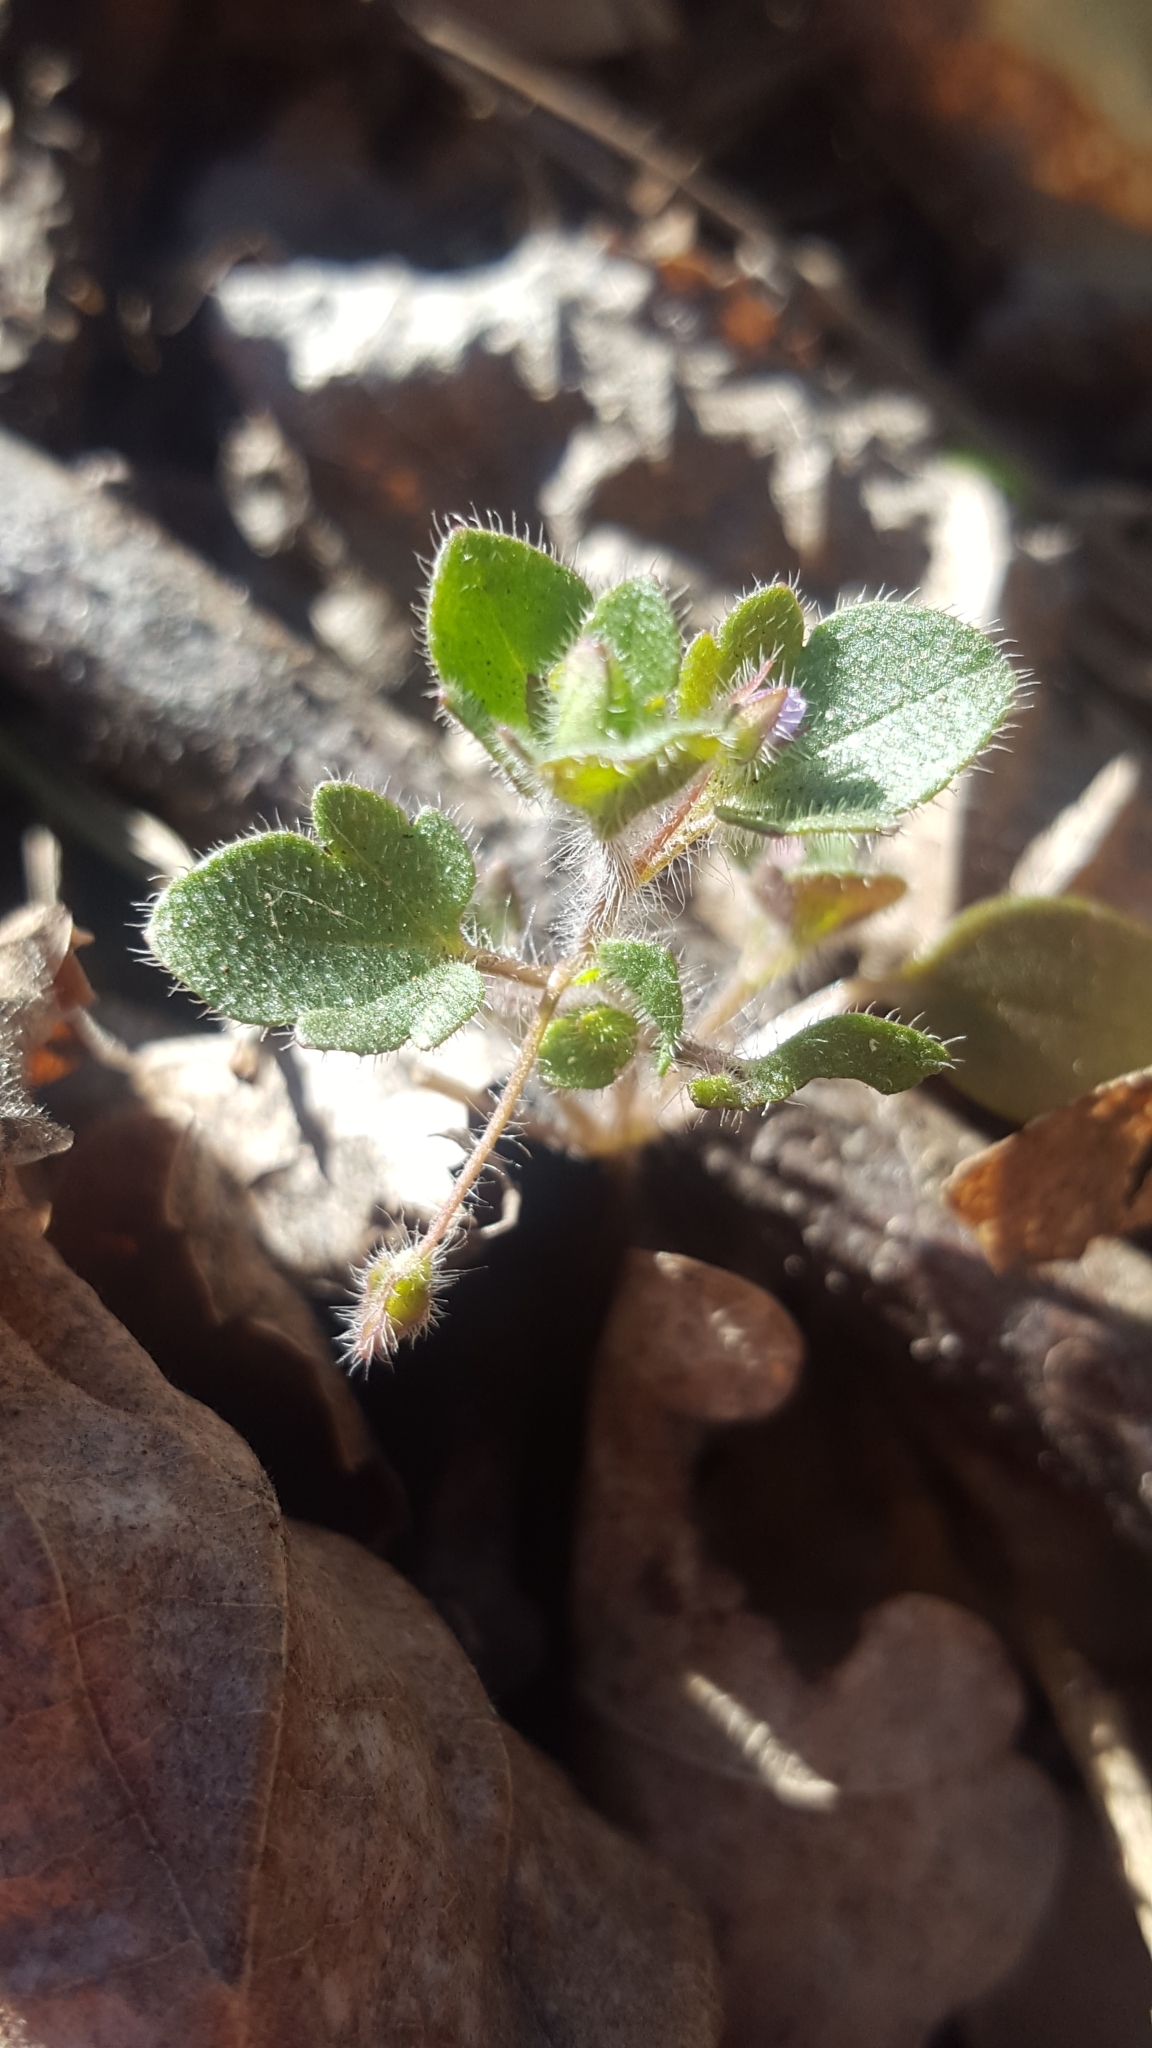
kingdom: Plantae
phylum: Tracheophyta
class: Magnoliopsida
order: Lamiales
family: Plantaginaceae
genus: Veronica
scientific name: Veronica sublobata
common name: False ivy-leaved speedwell
